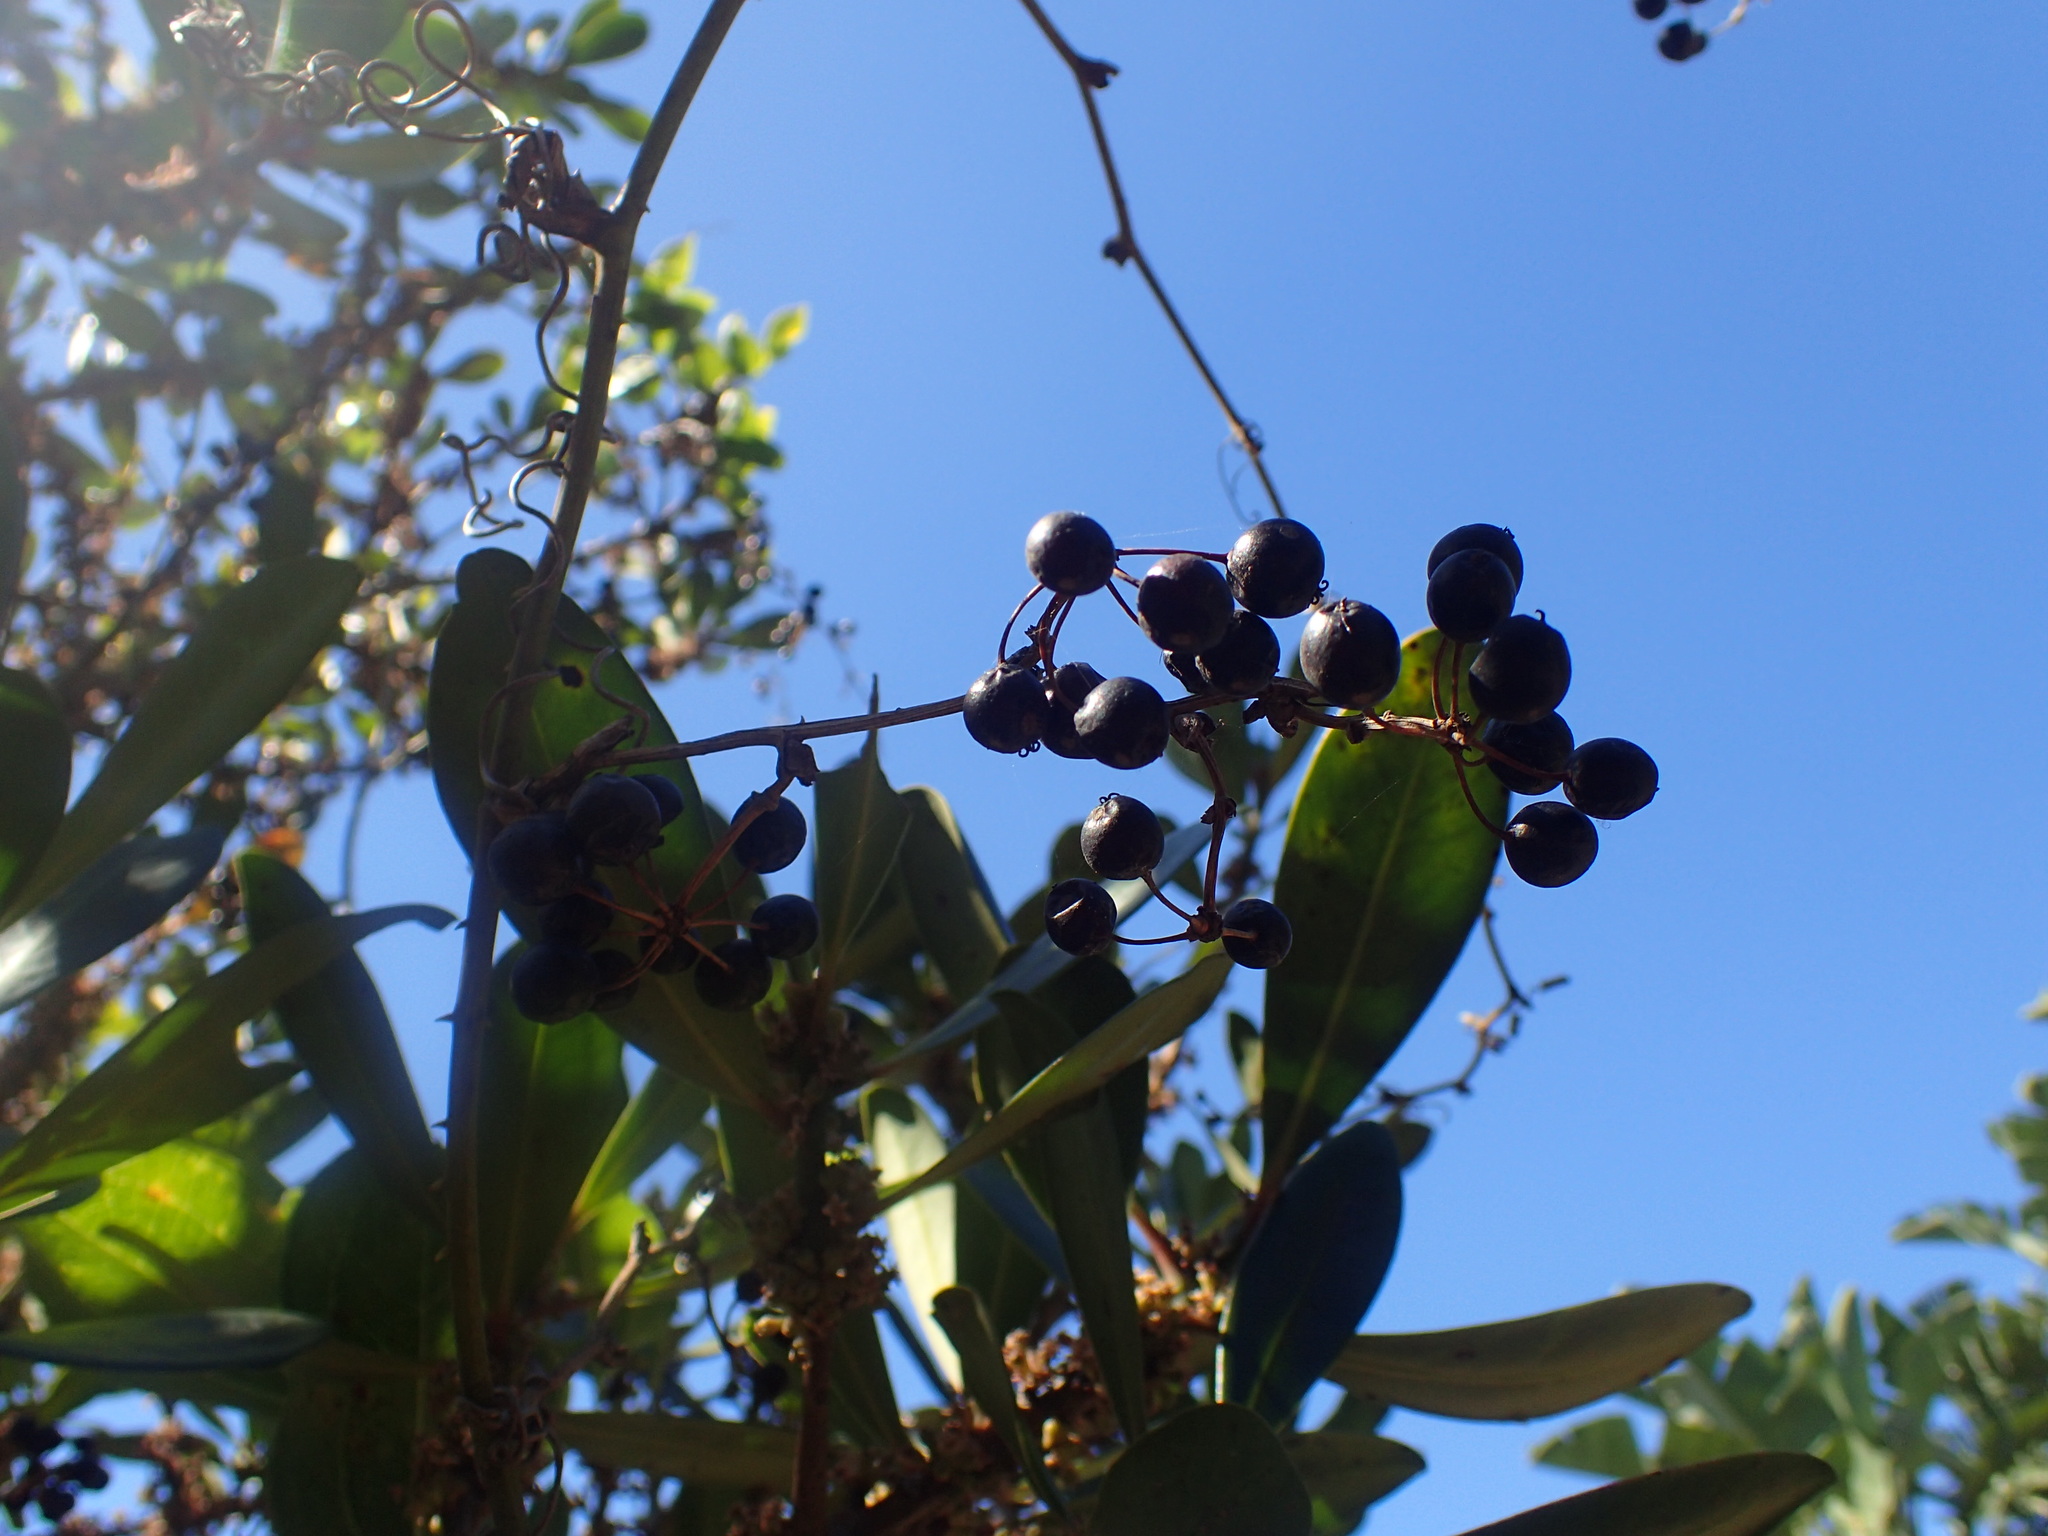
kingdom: Plantae
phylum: Tracheophyta
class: Liliopsida
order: Liliales
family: Smilacaceae
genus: Smilax
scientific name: Smilax anceps
